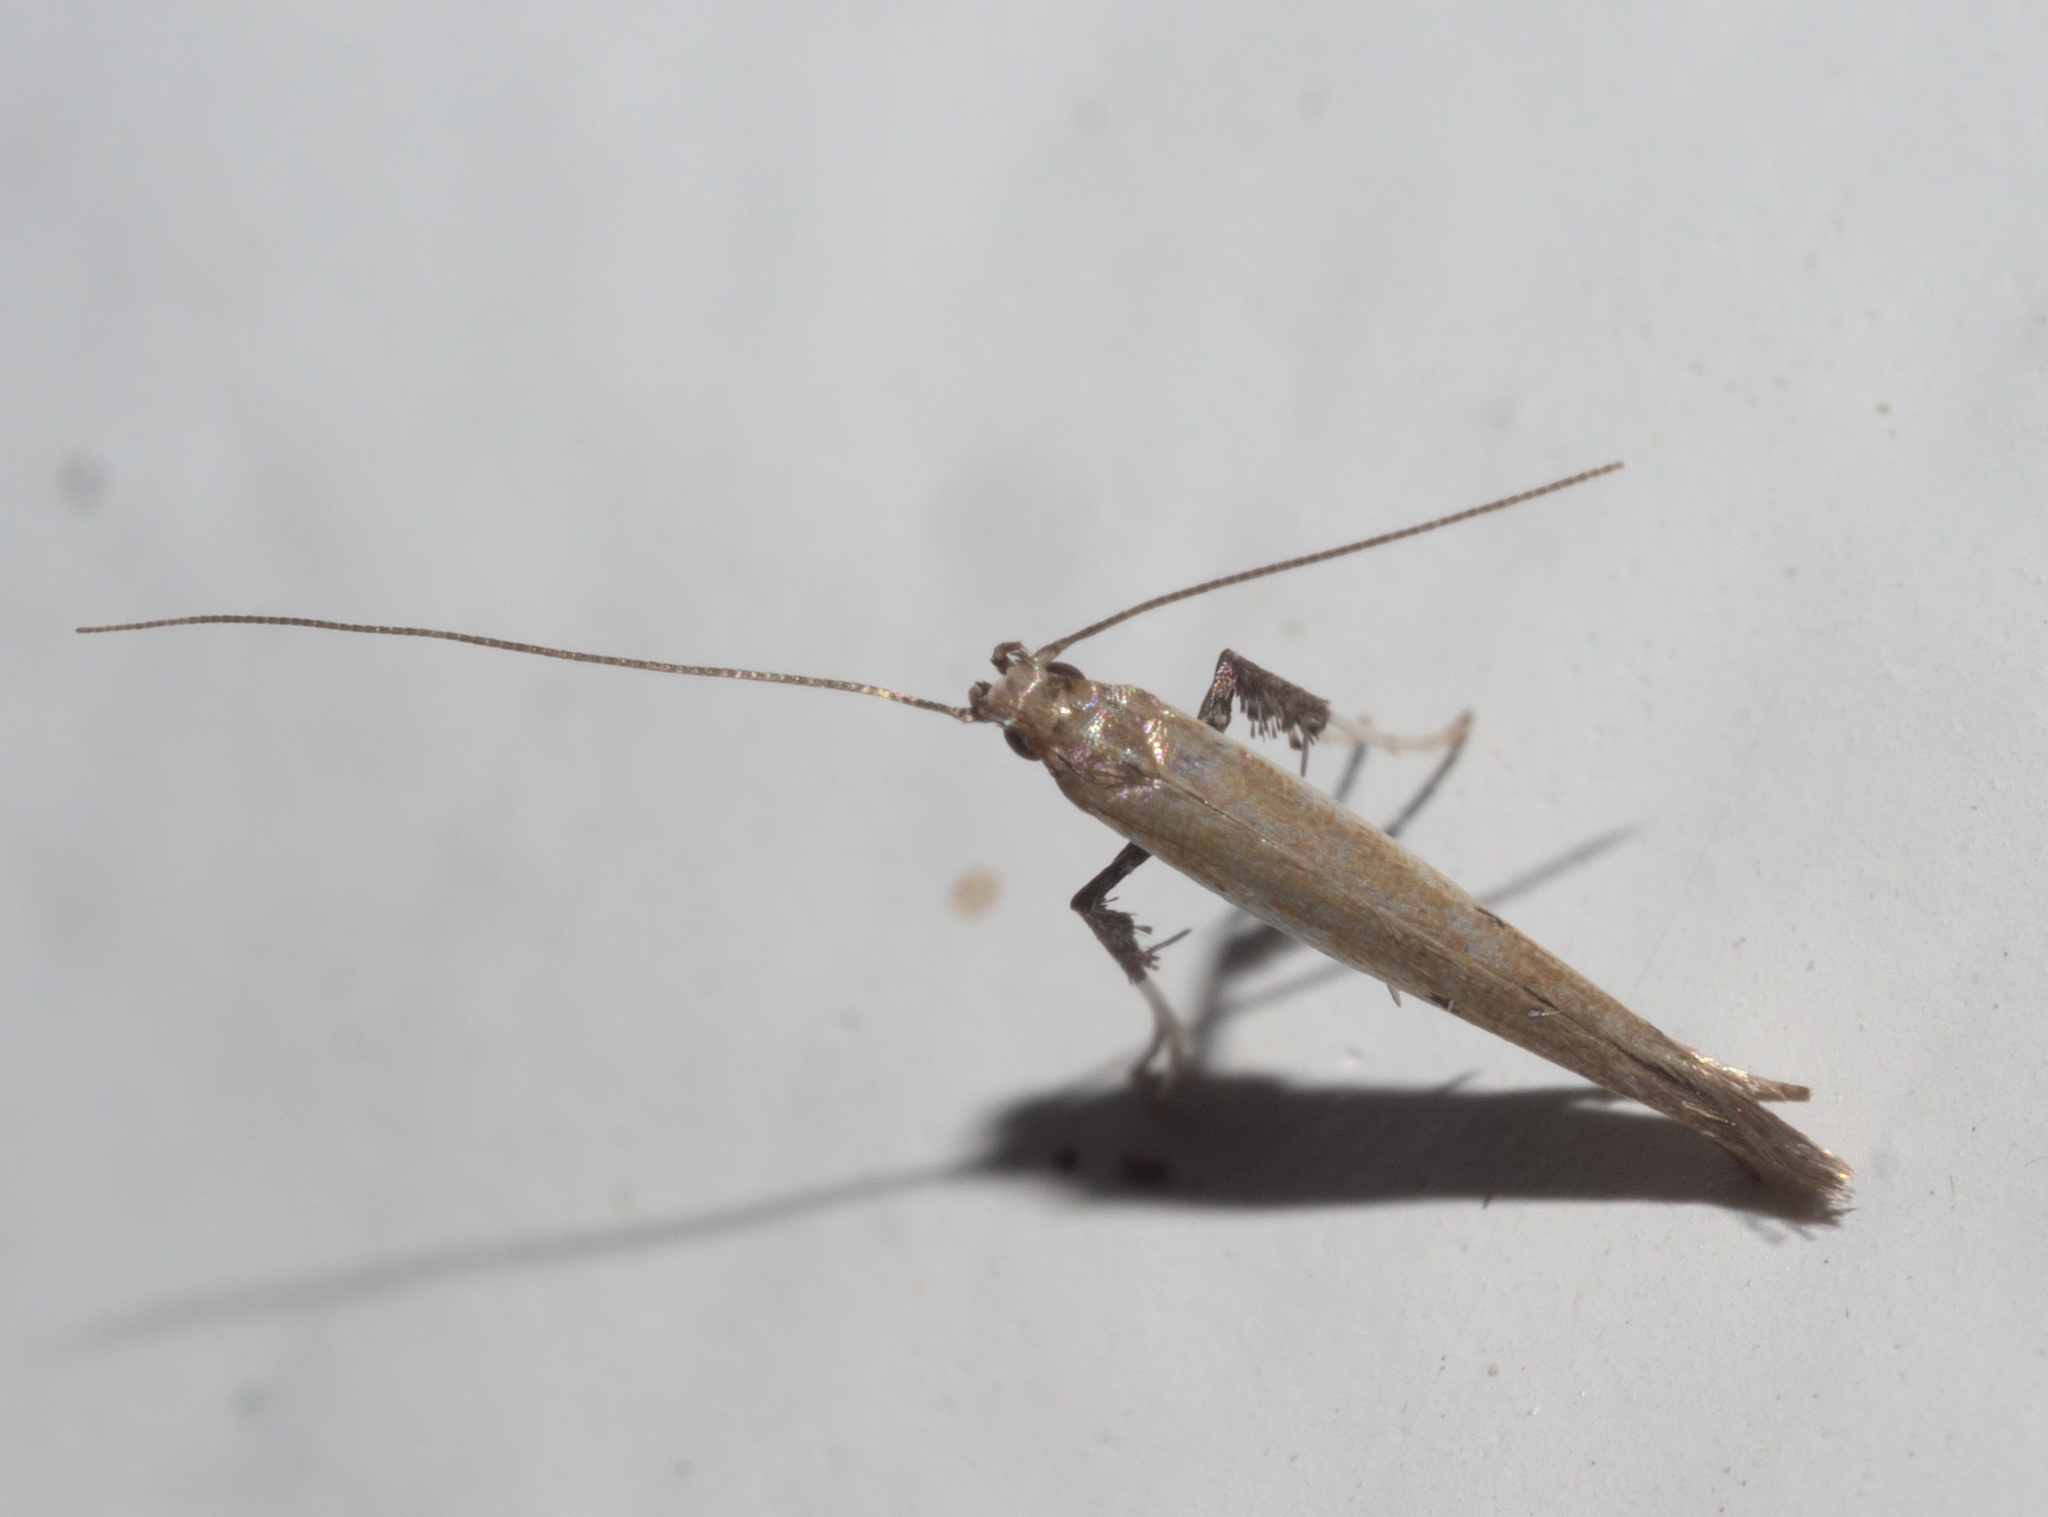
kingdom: Animalia
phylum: Arthropoda
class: Insecta
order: Lepidoptera
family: Gracillariidae
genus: Caloptilia
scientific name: Caloptilia violacella
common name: Tick-trefoil caloptilia moth
